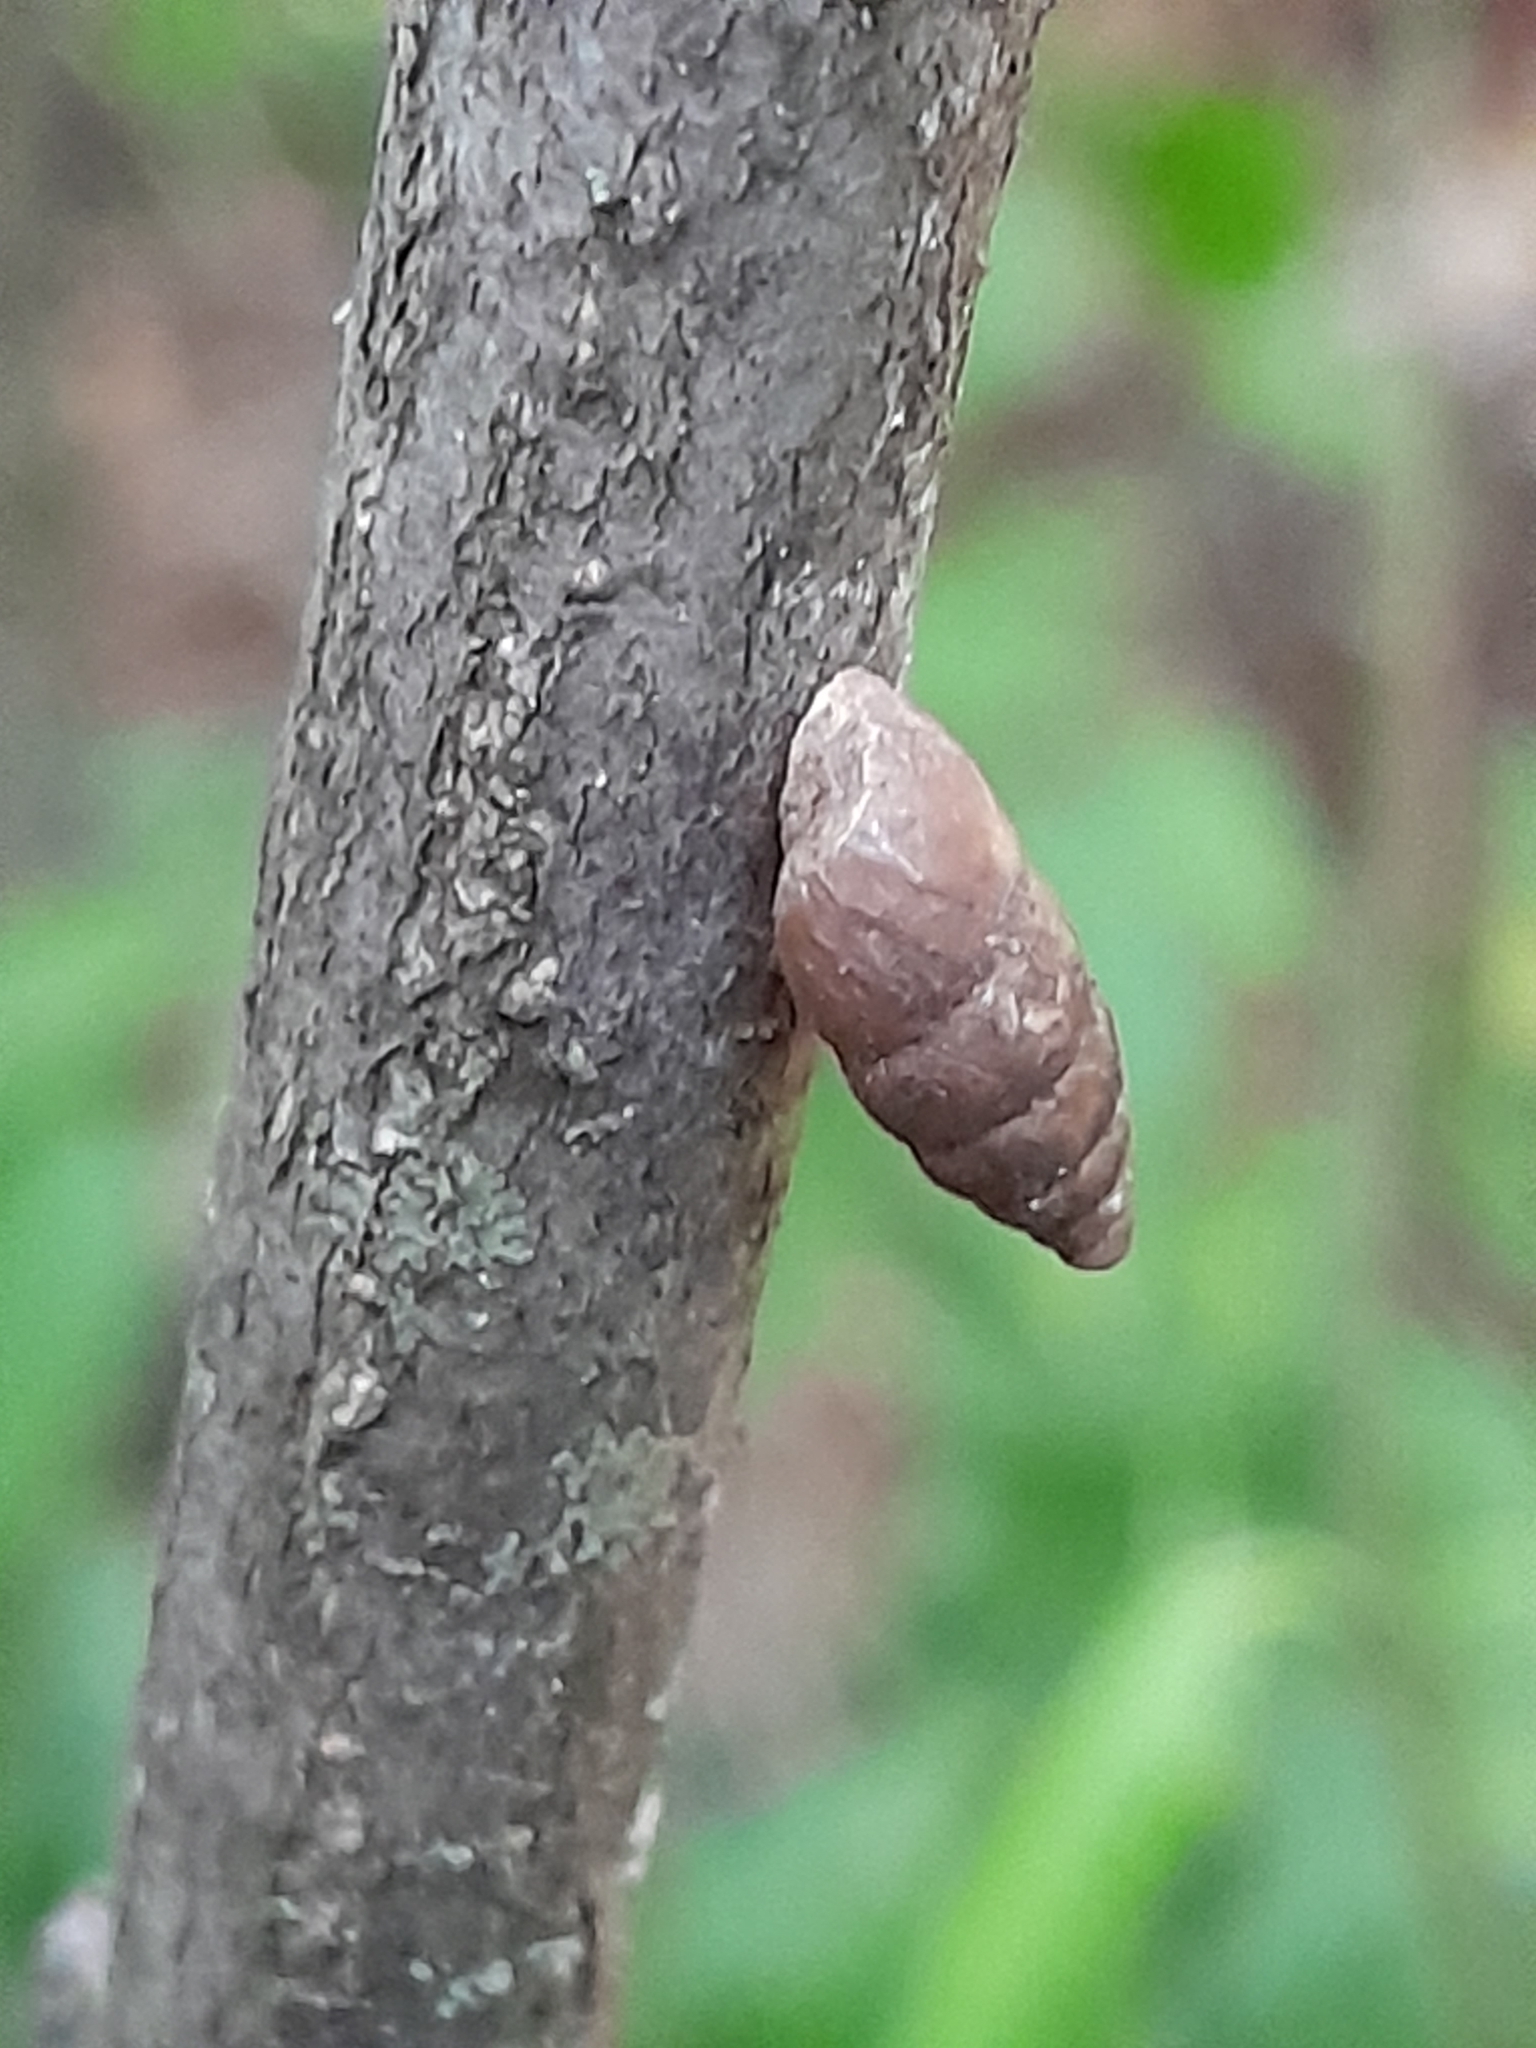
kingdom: Animalia
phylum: Mollusca
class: Gastropoda
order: Stylommatophora
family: Enidae
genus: Merdigera
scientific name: Merdigera obscura
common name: Lesser bulin
